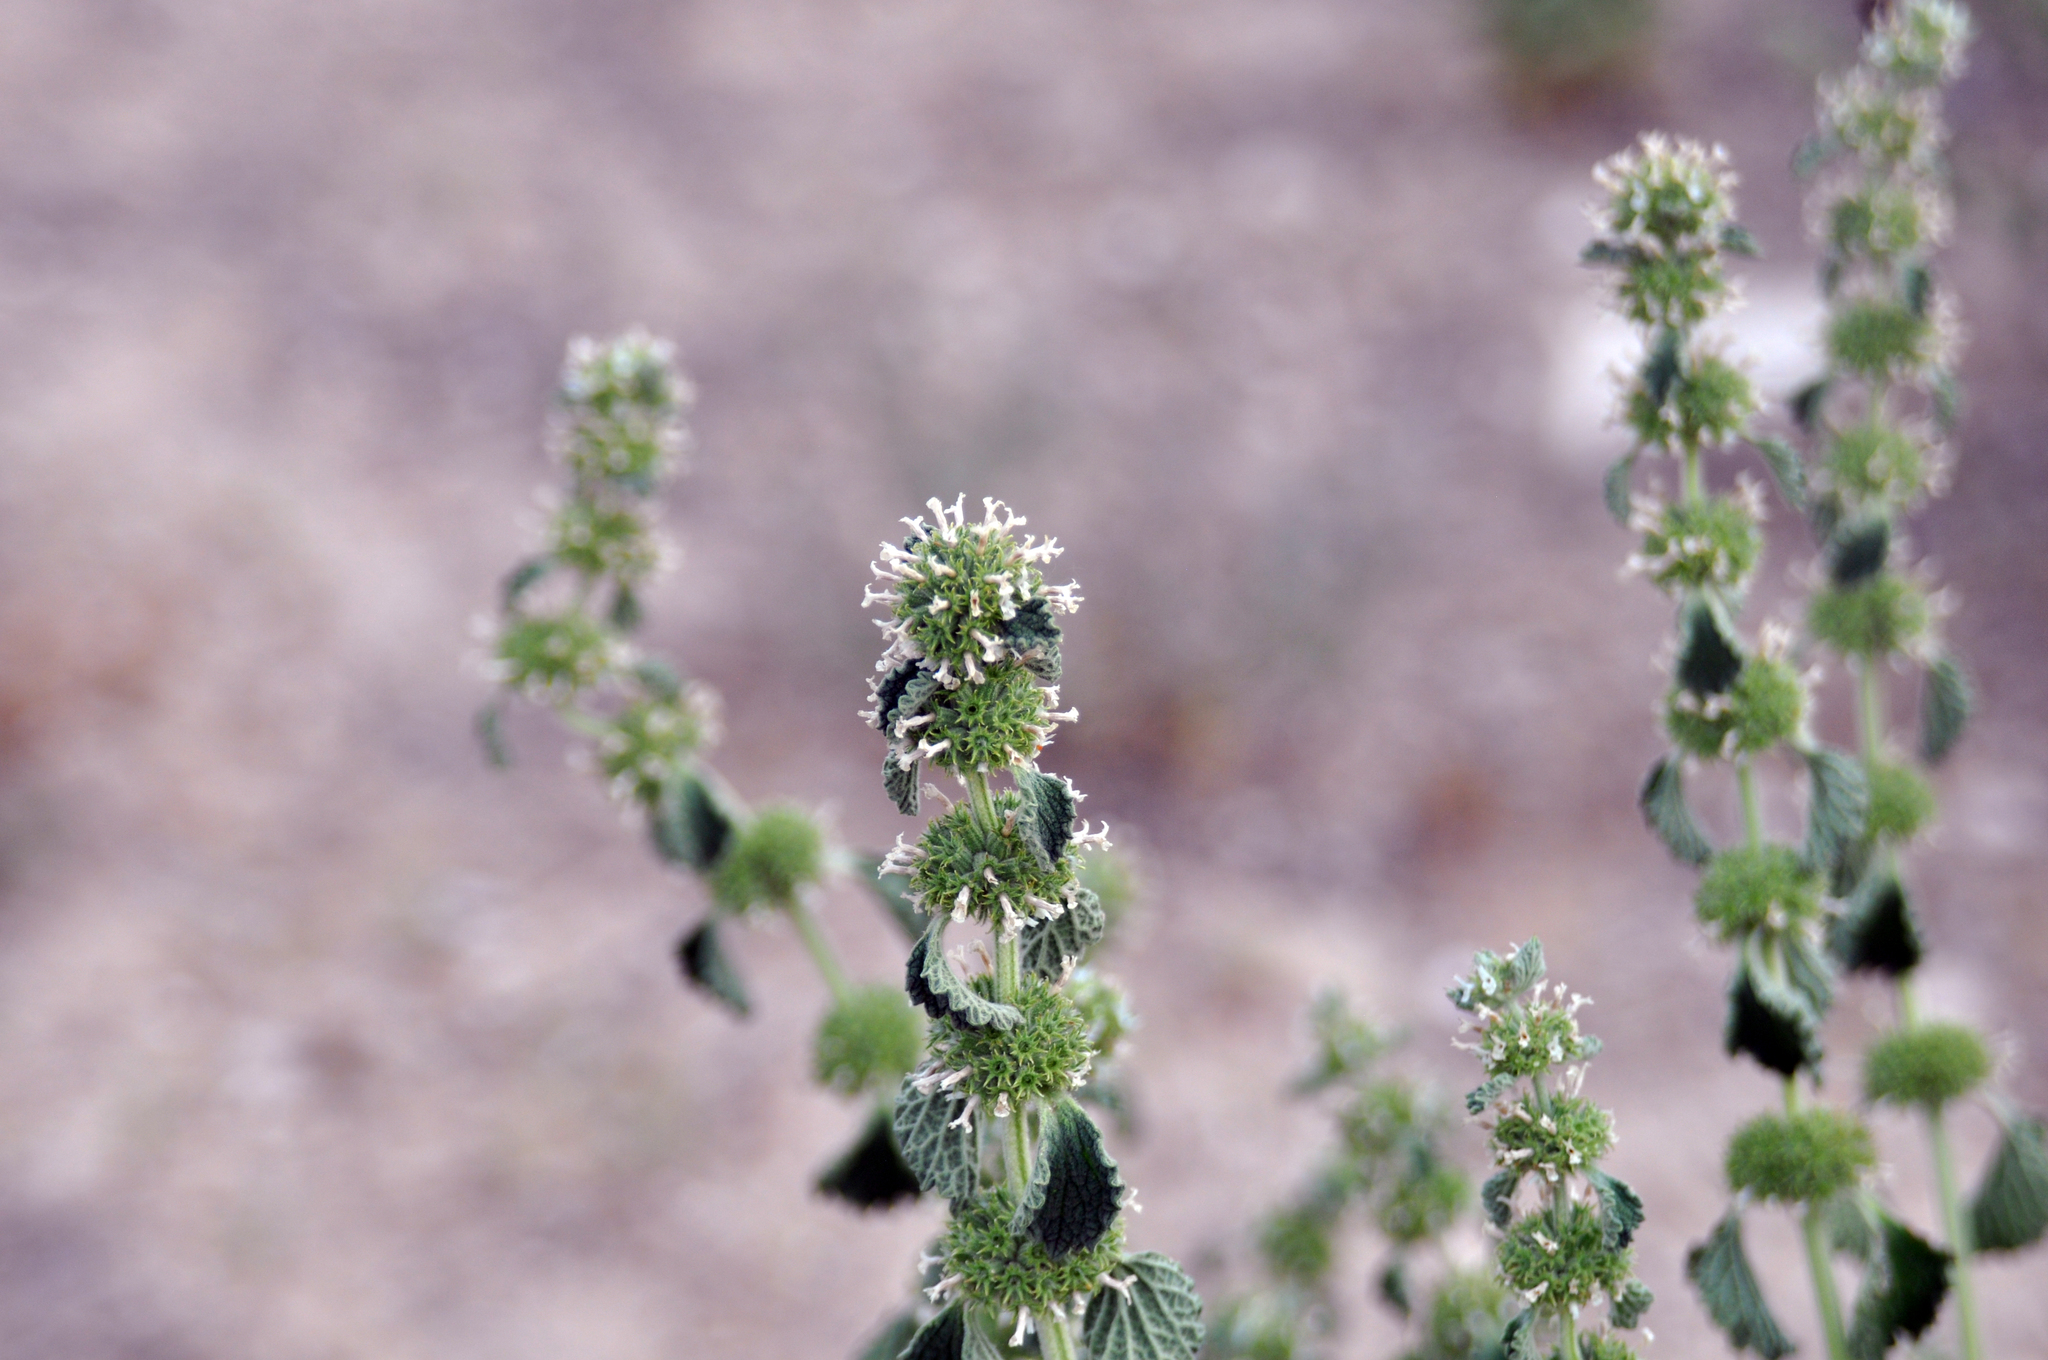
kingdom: Plantae
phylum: Tracheophyta
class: Magnoliopsida
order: Lamiales
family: Lamiaceae
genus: Marrubium
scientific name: Marrubium vulgare
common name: Horehound
